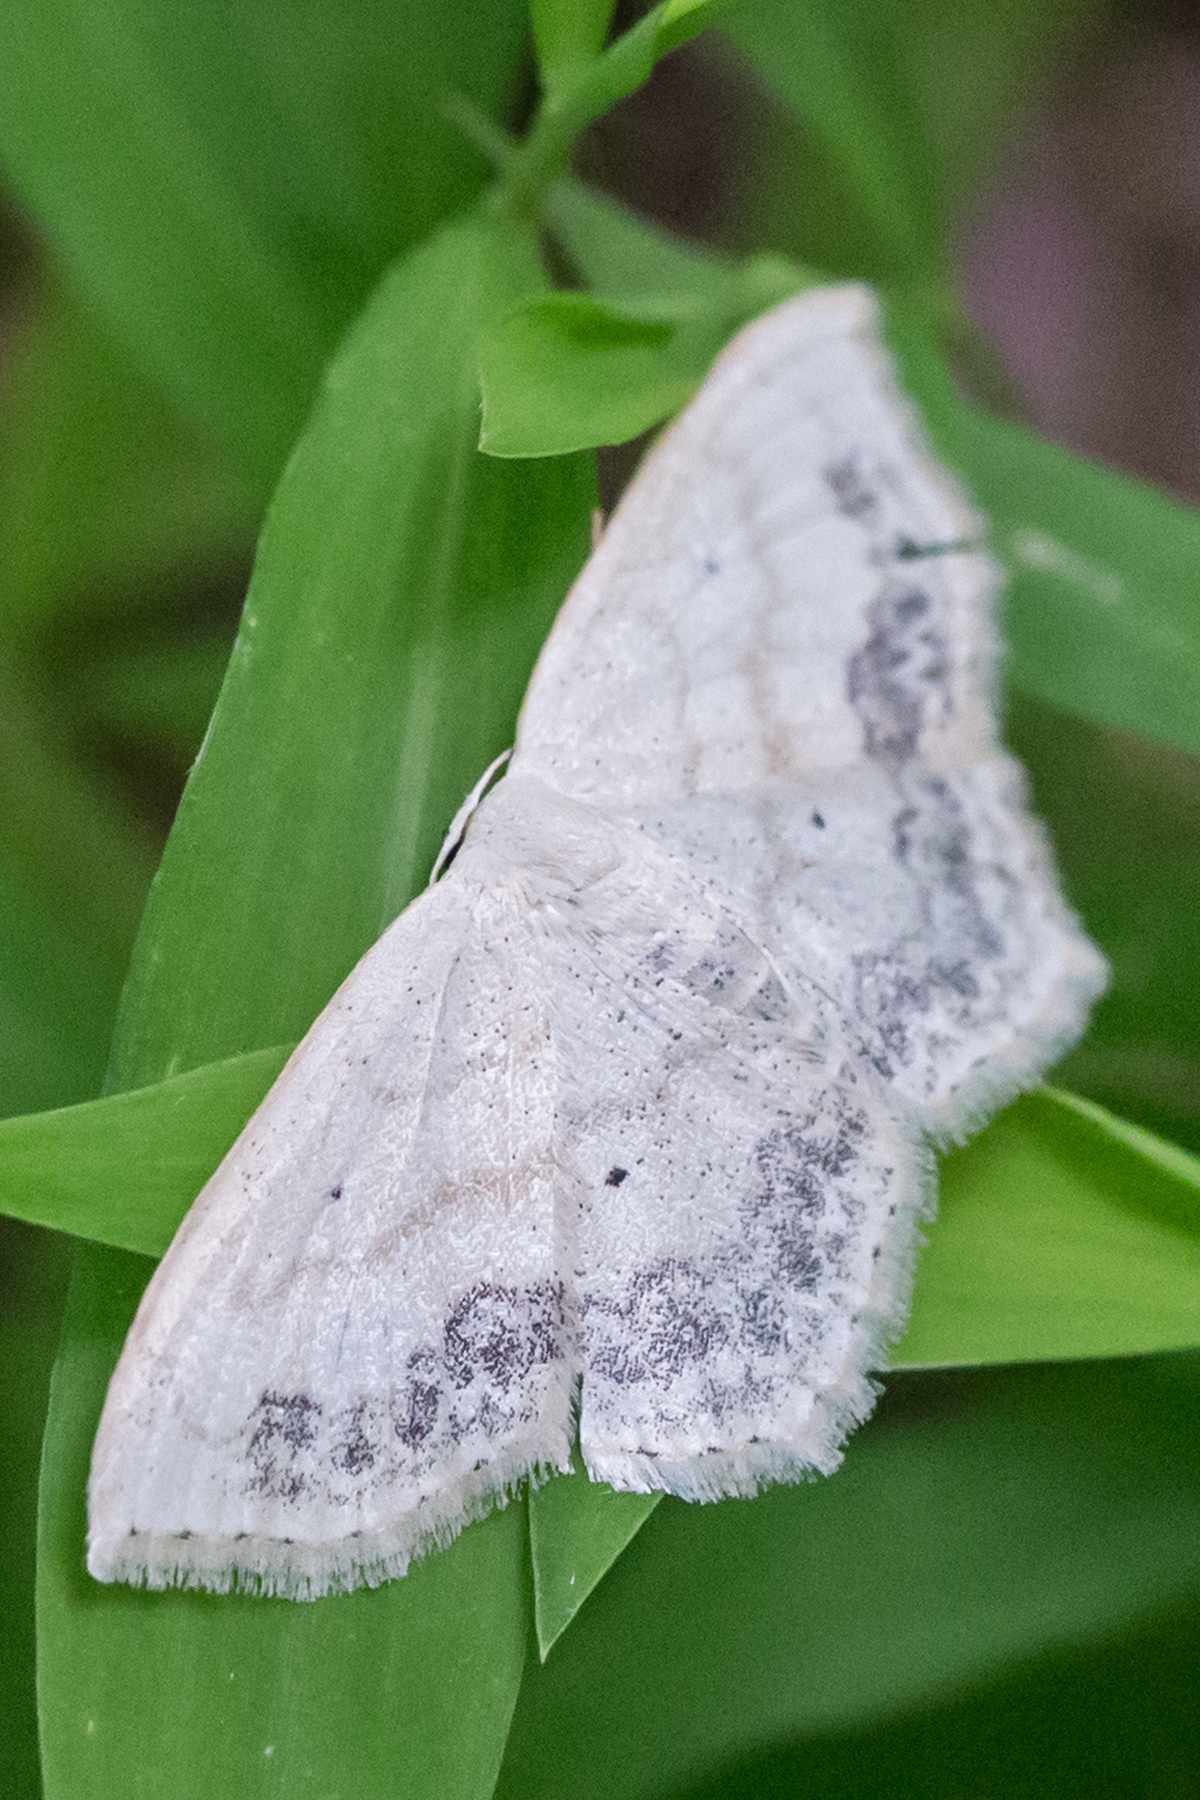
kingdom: Animalia
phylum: Arthropoda
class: Insecta
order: Lepidoptera
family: Geometridae
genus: Scopula
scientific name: Scopula limboundata
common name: Large lace border
